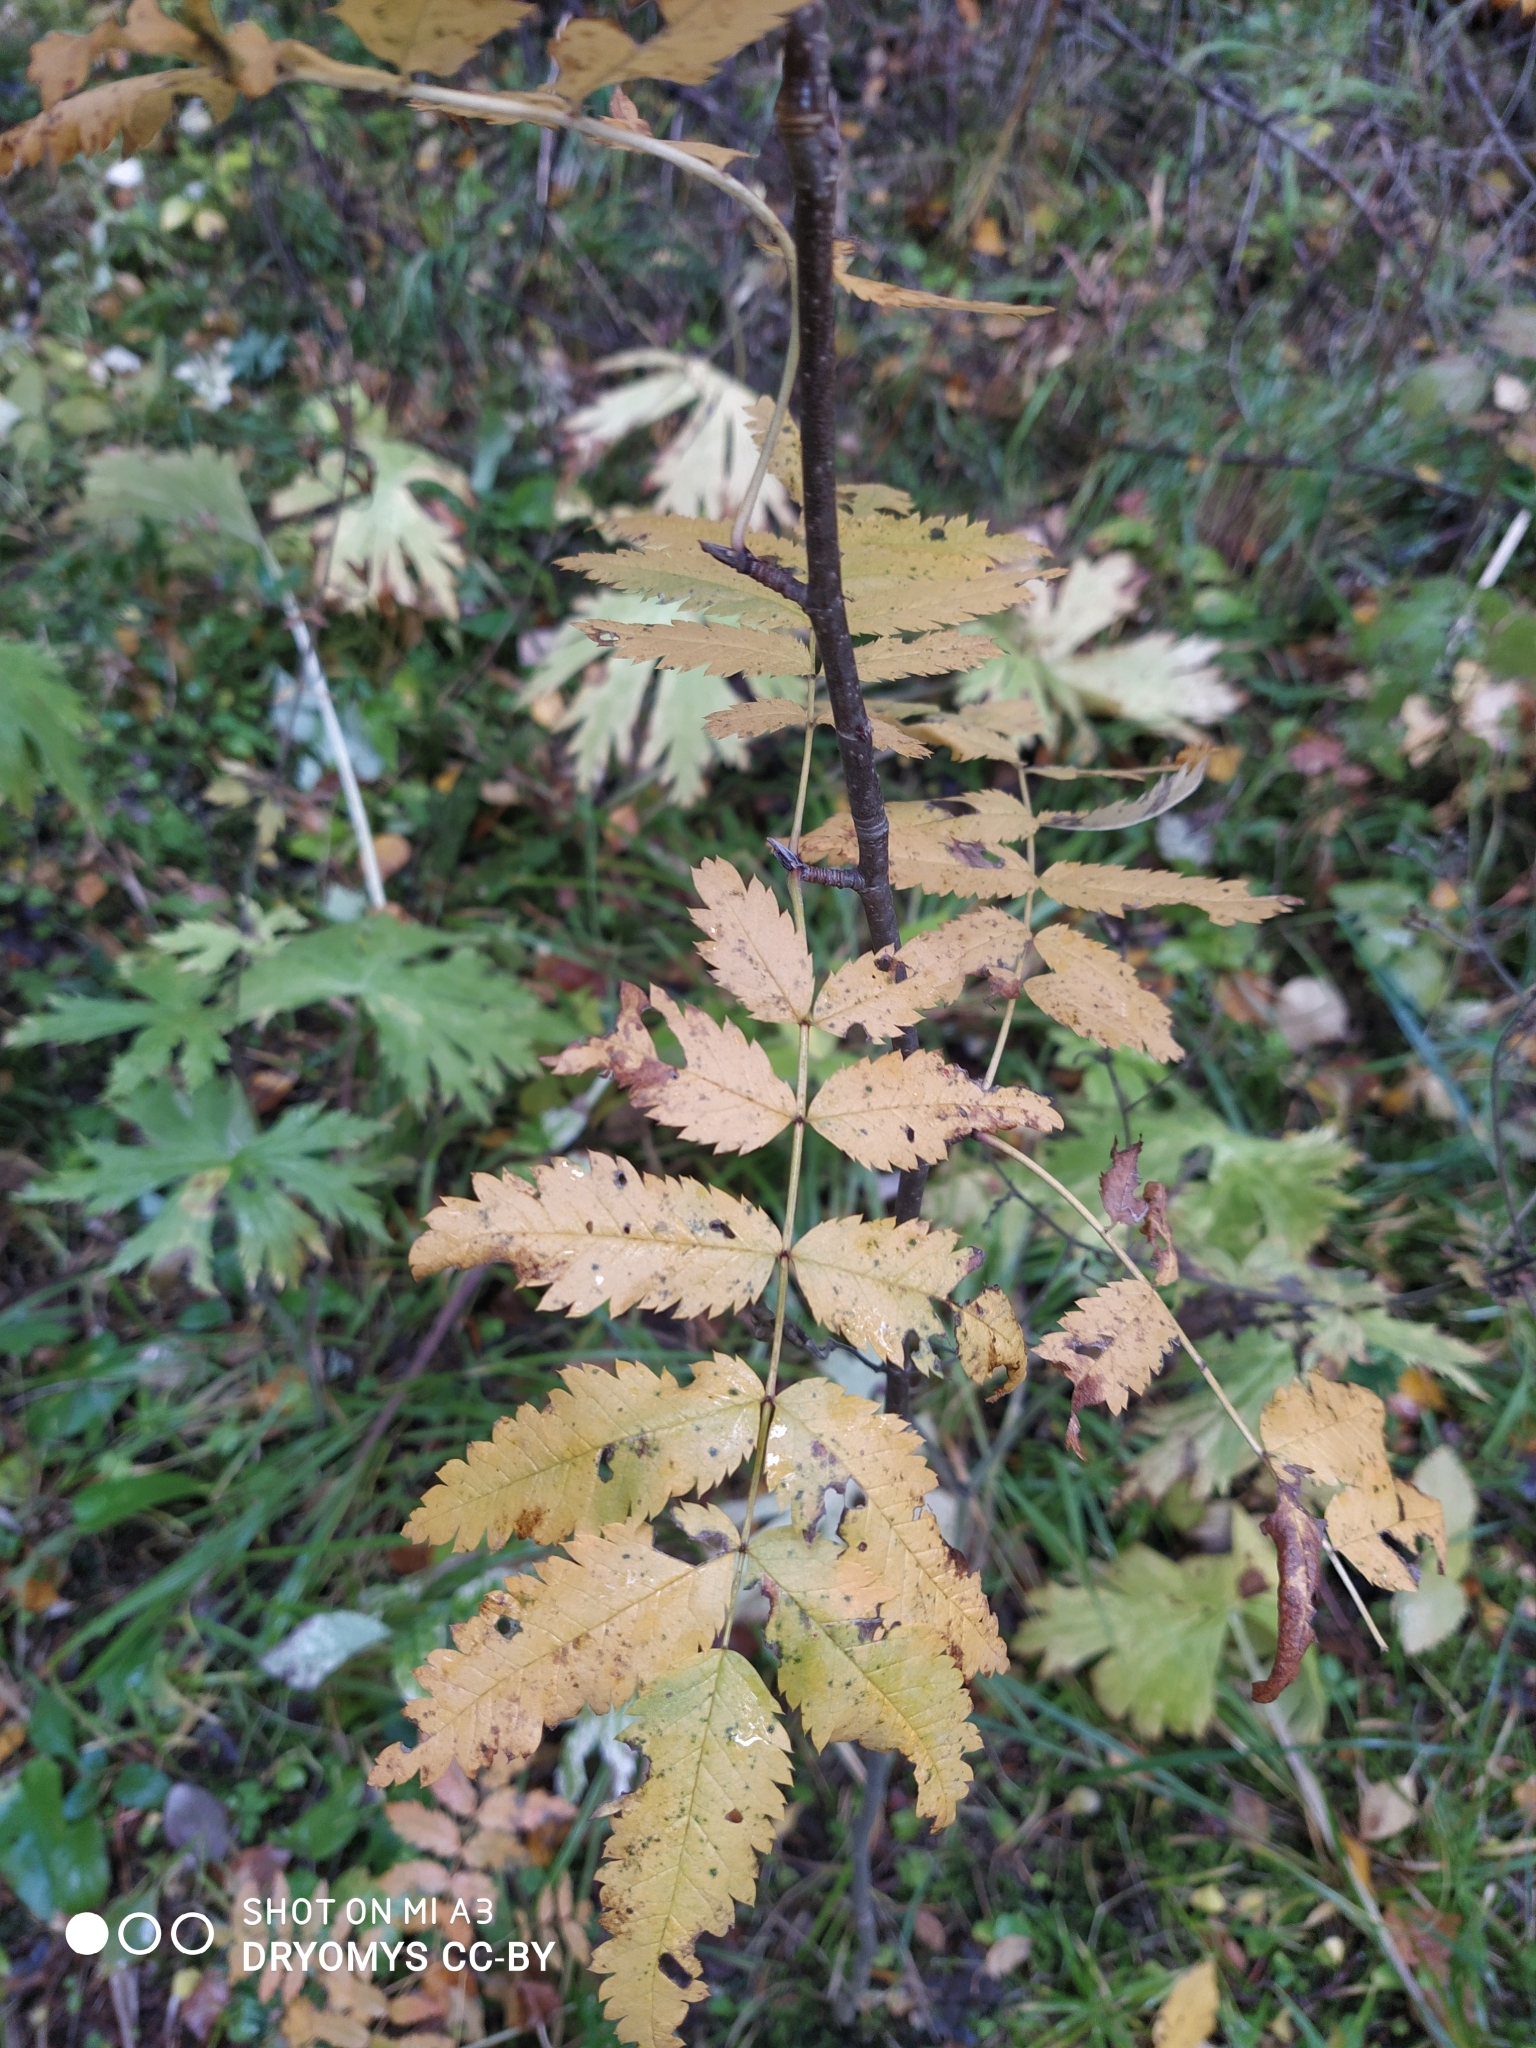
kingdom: Plantae
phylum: Tracheophyta
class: Magnoliopsida
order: Rosales
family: Rosaceae
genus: Sorbus
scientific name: Sorbus aucuparia
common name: Rowan
